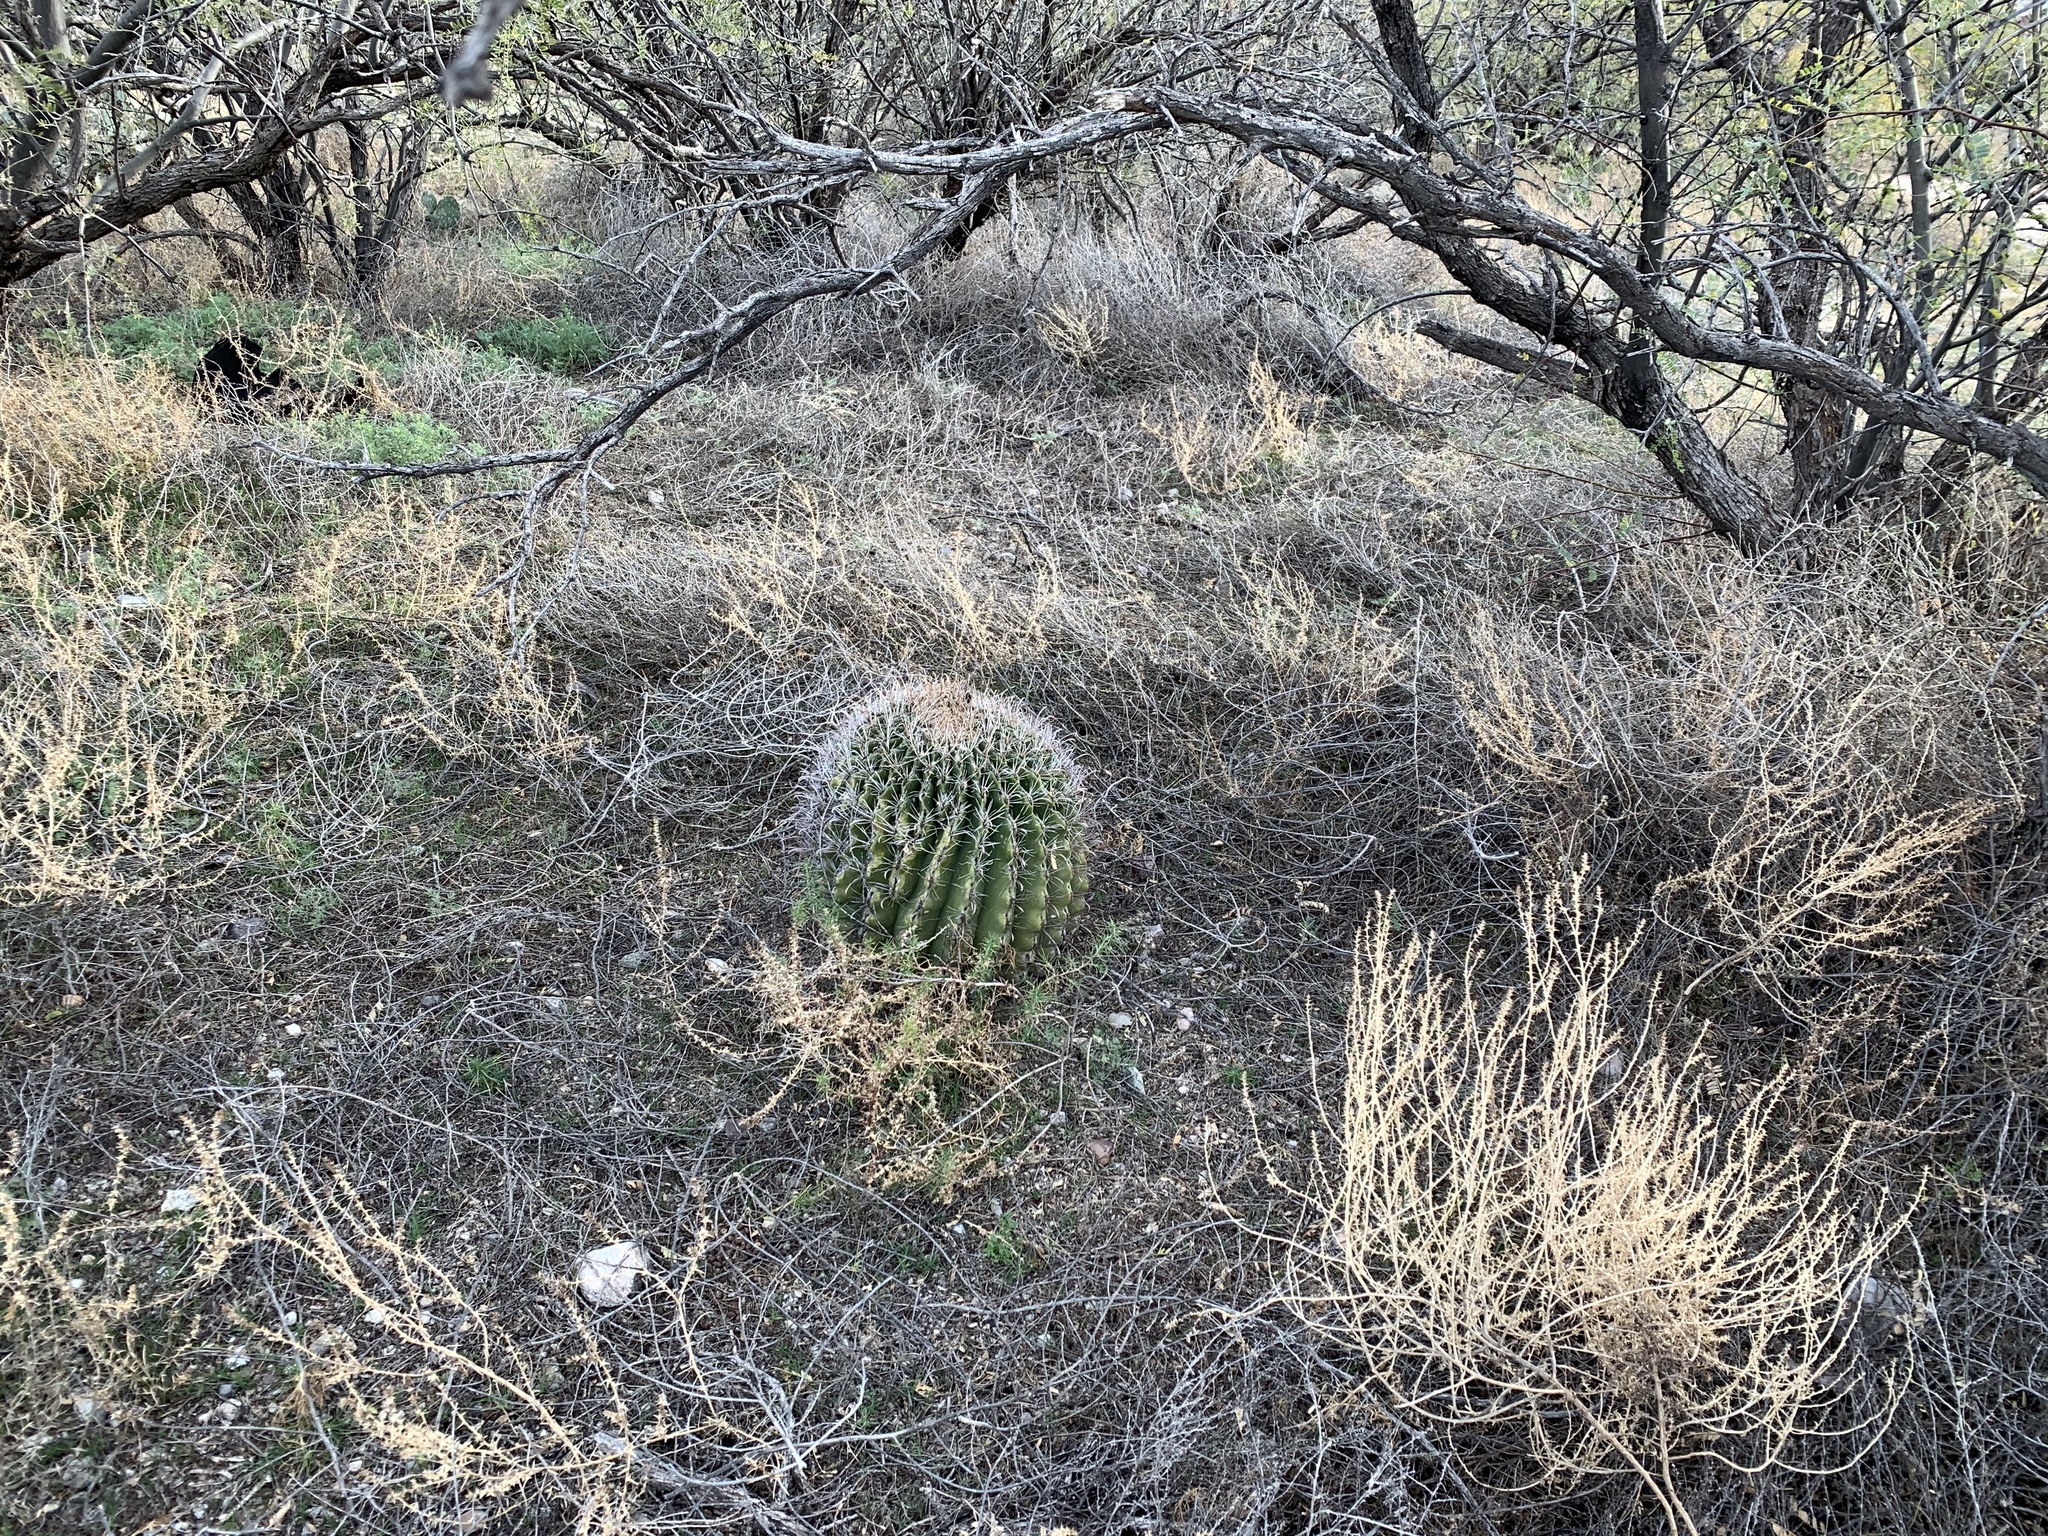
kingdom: Plantae
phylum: Tracheophyta
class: Magnoliopsida
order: Caryophyllales
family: Cactaceae
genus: Ferocactus
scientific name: Ferocactus wislizeni
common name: Candy barrel cactus
